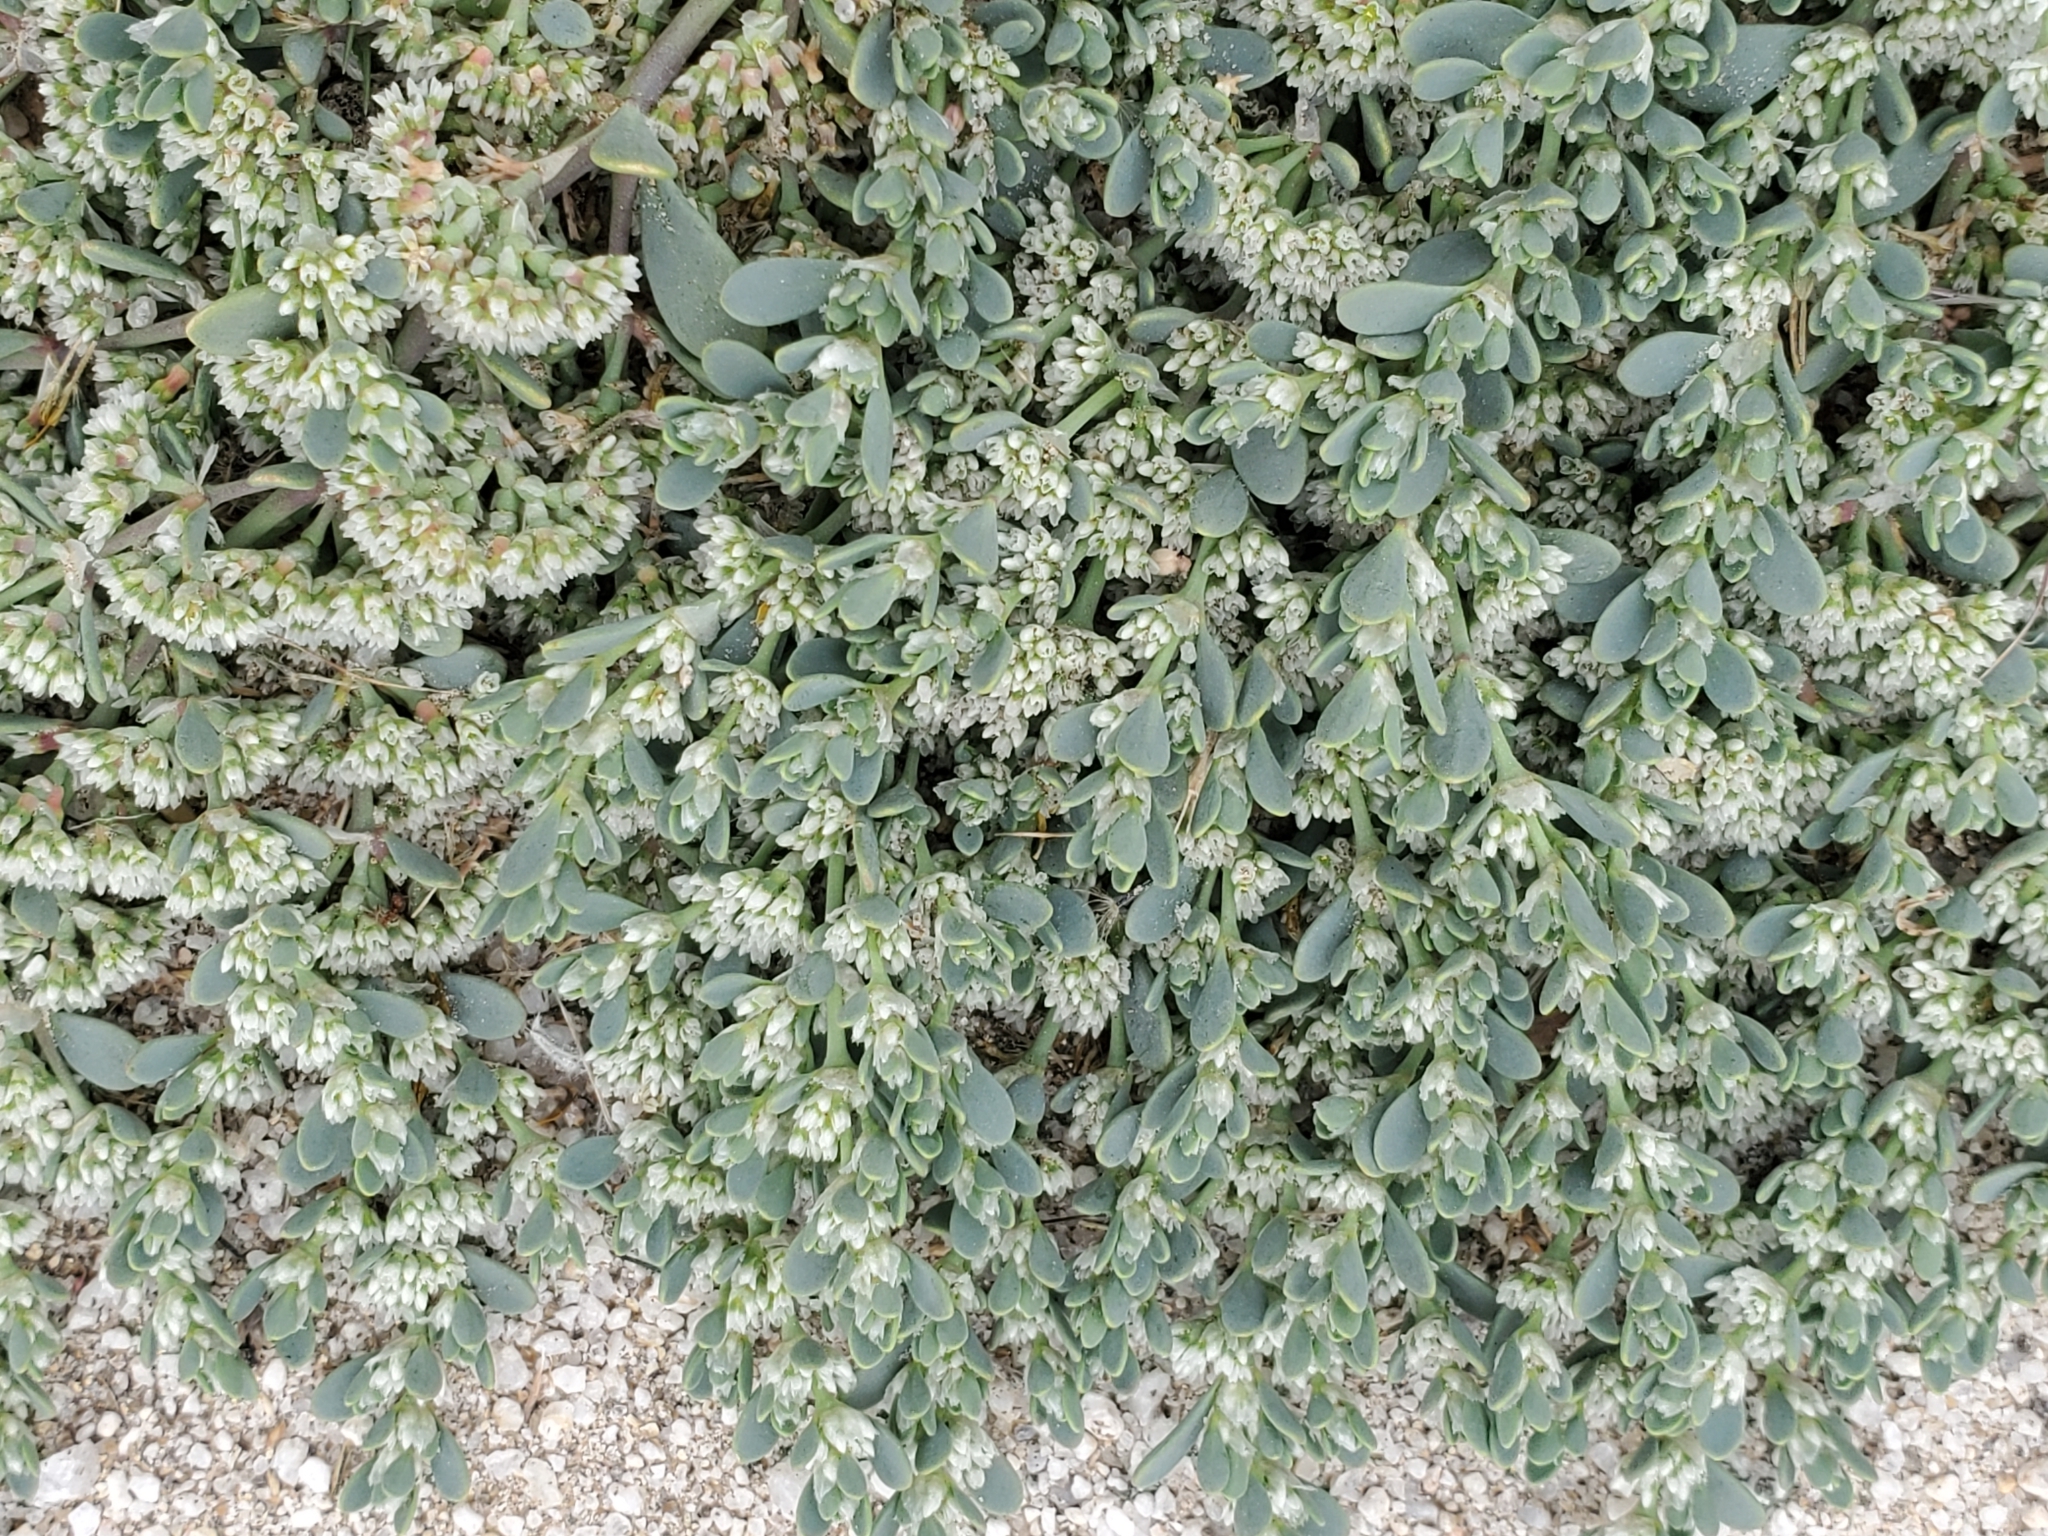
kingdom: Plantae
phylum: Tracheophyta
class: Magnoliopsida
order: Caryophyllales
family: Caryophyllaceae
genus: Achyronychia
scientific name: Achyronychia cooperi
